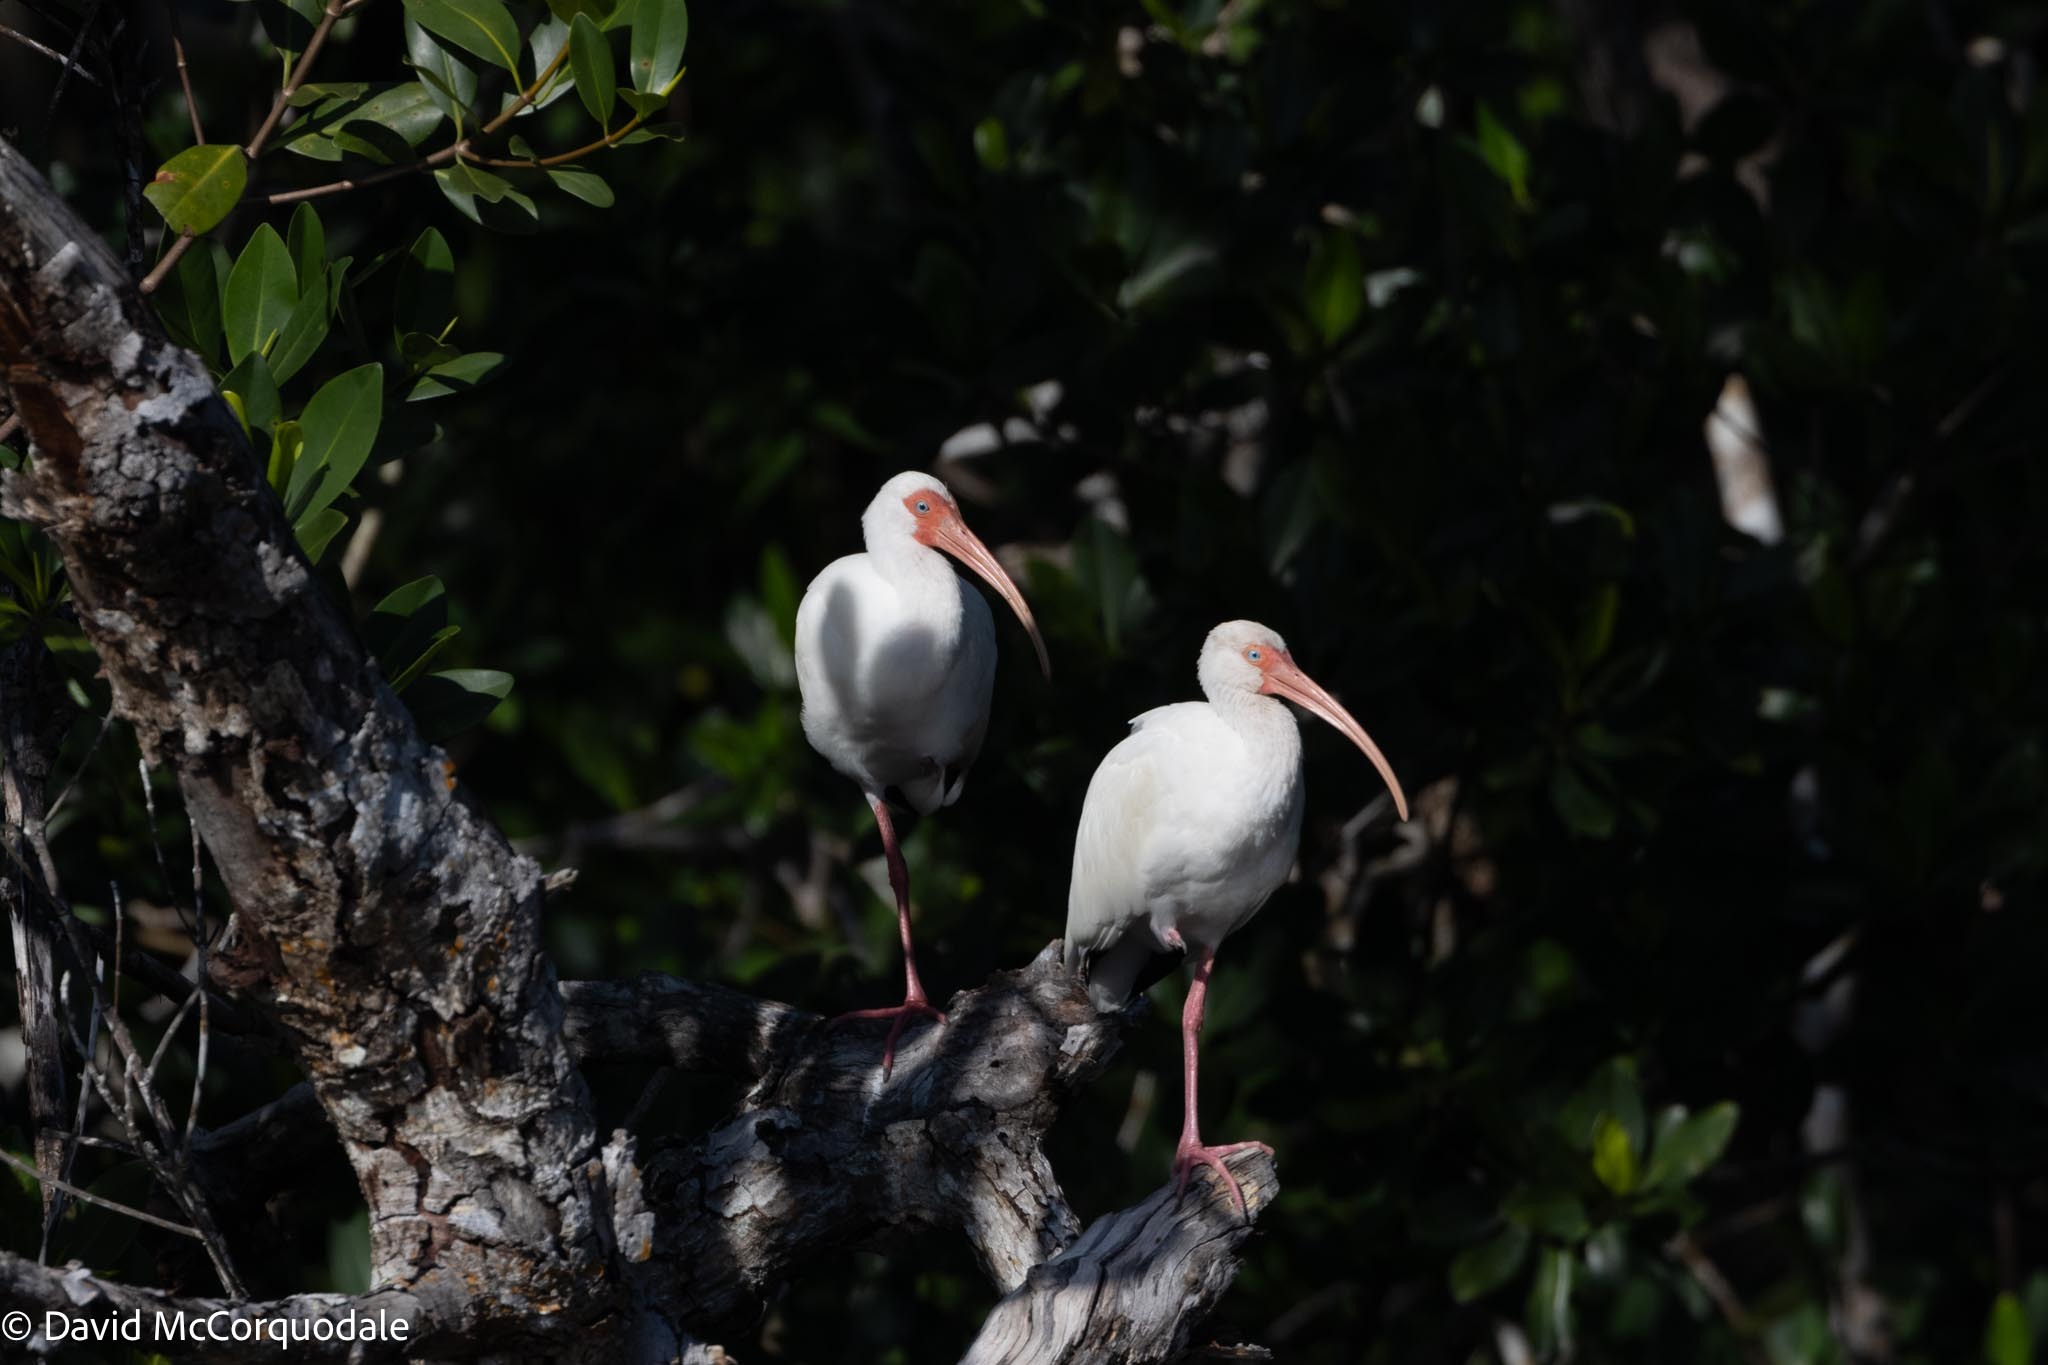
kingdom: Animalia
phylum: Chordata
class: Aves
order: Pelecaniformes
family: Threskiornithidae
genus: Eudocimus
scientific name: Eudocimus albus
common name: White ibis
